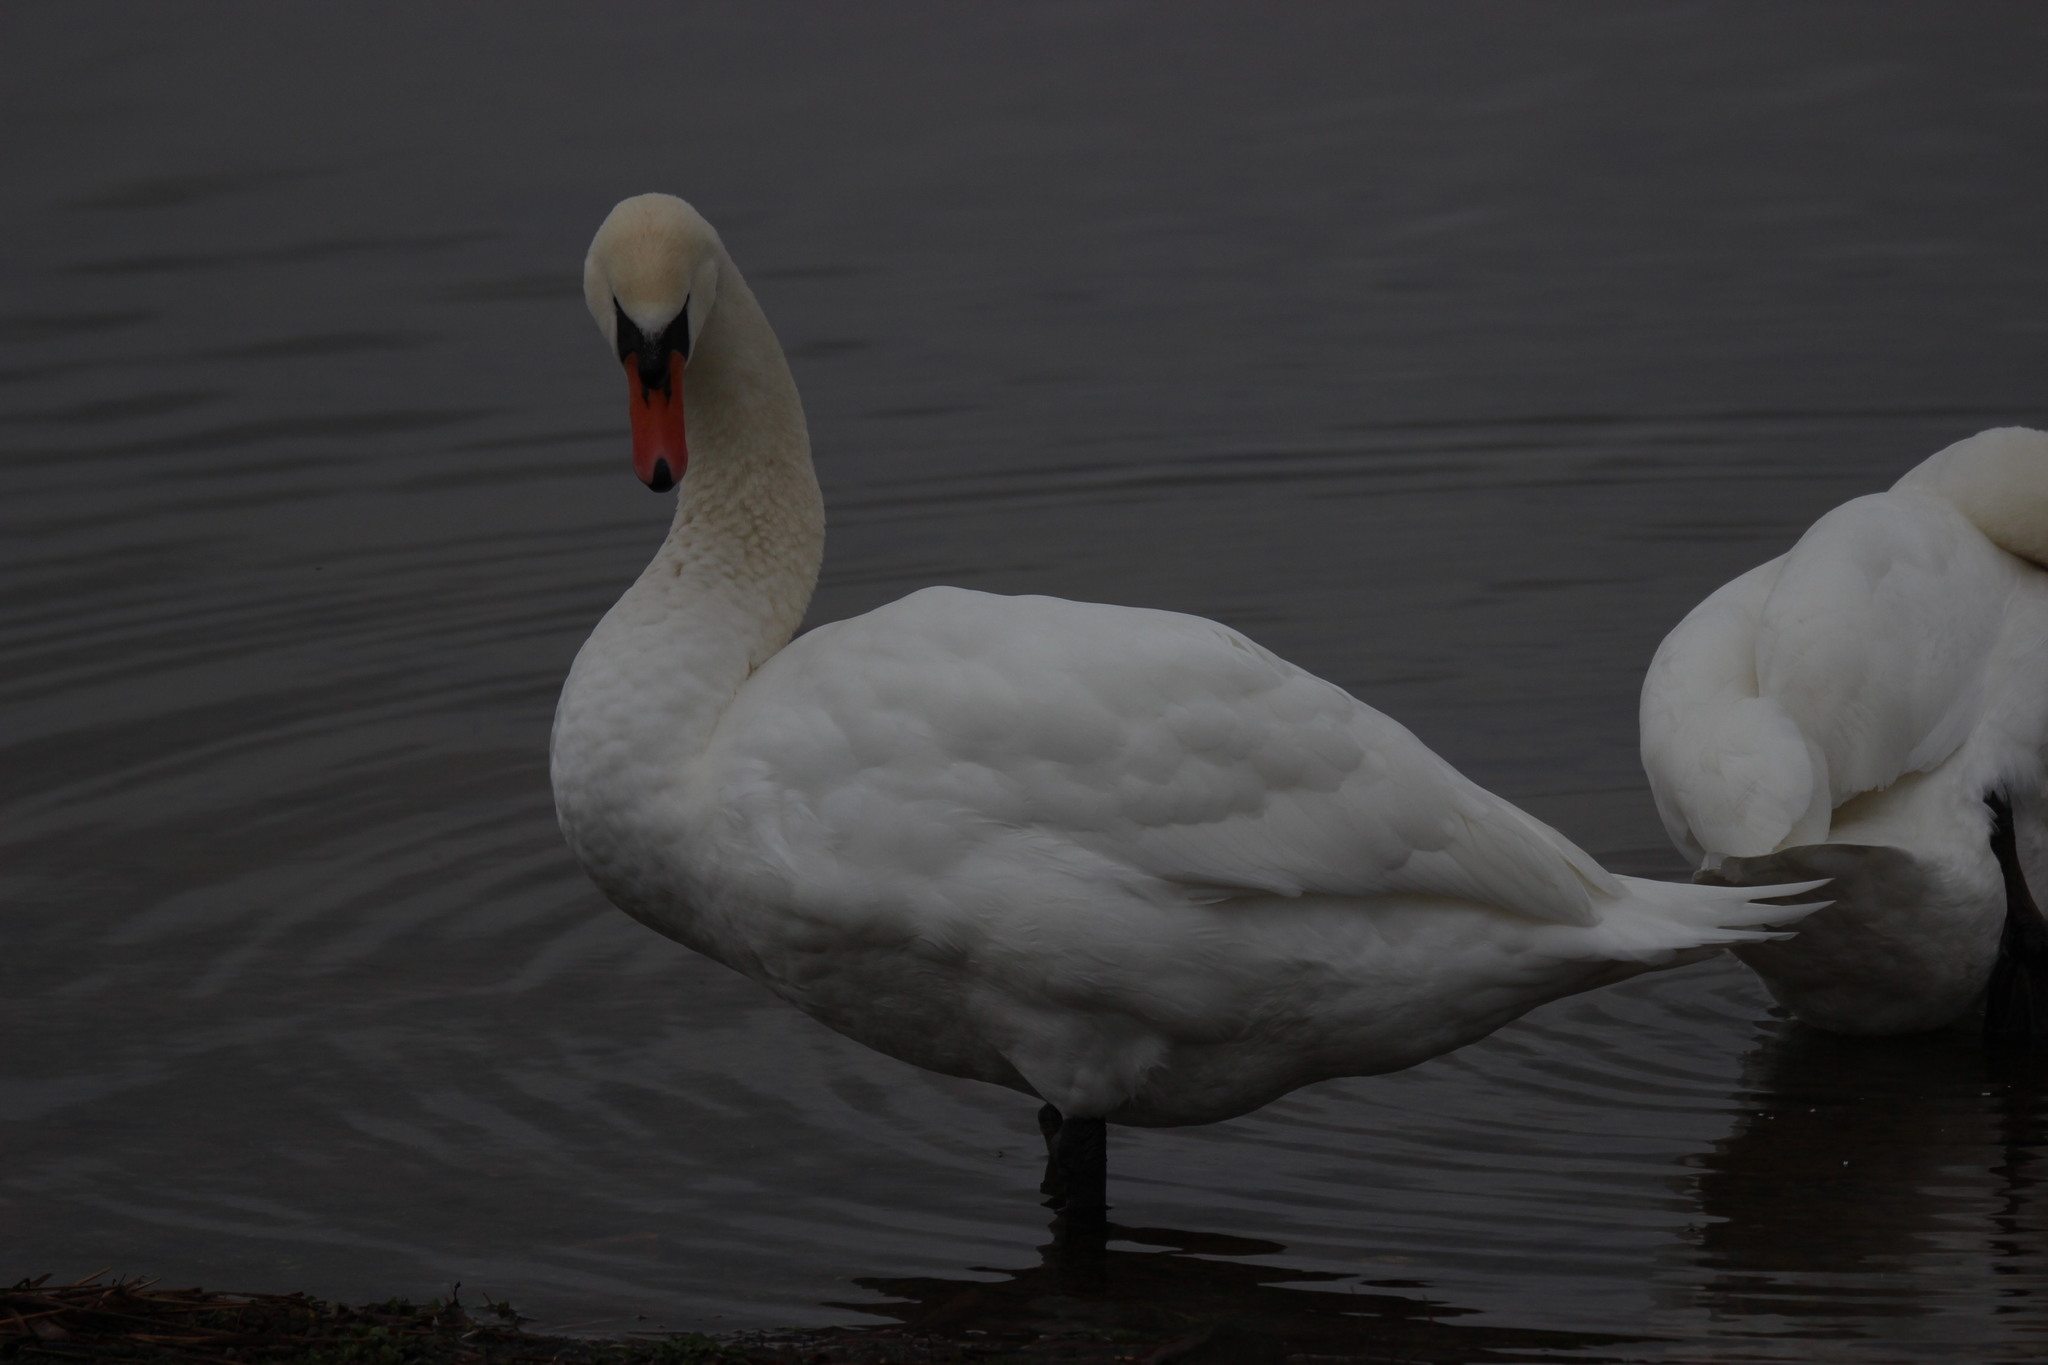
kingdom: Animalia
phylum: Chordata
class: Aves
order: Anseriformes
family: Anatidae
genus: Cygnus
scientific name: Cygnus olor
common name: Mute swan
